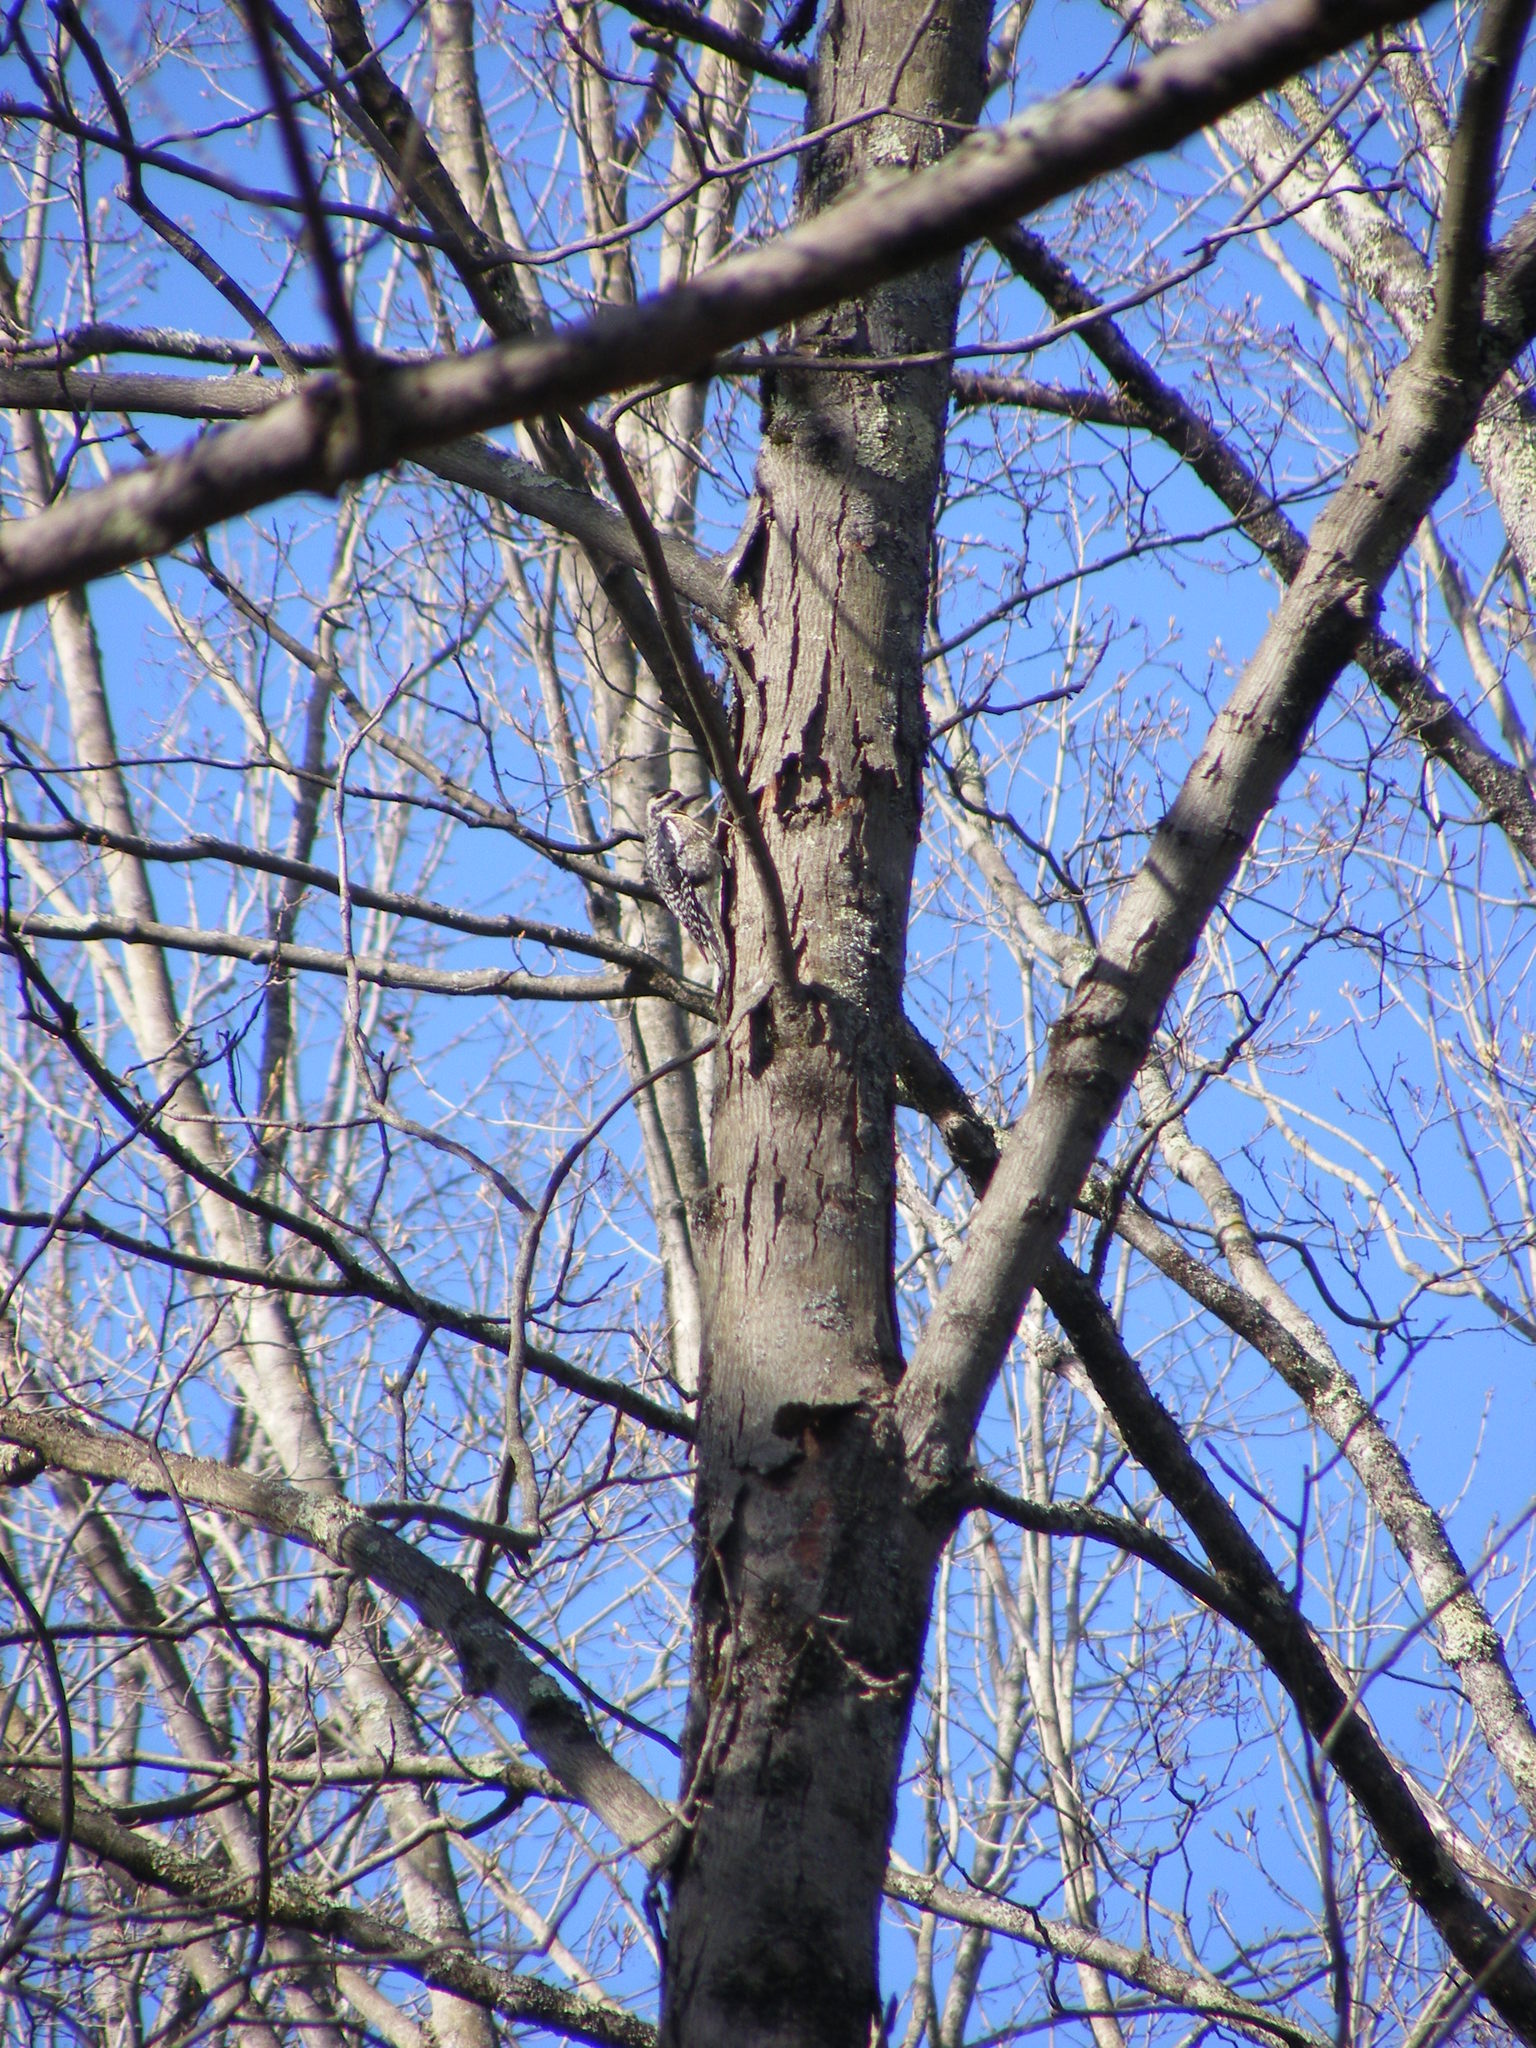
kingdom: Animalia
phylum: Chordata
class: Aves
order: Piciformes
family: Picidae
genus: Sphyrapicus
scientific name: Sphyrapicus varius
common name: Yellow-bellied sapsucker
